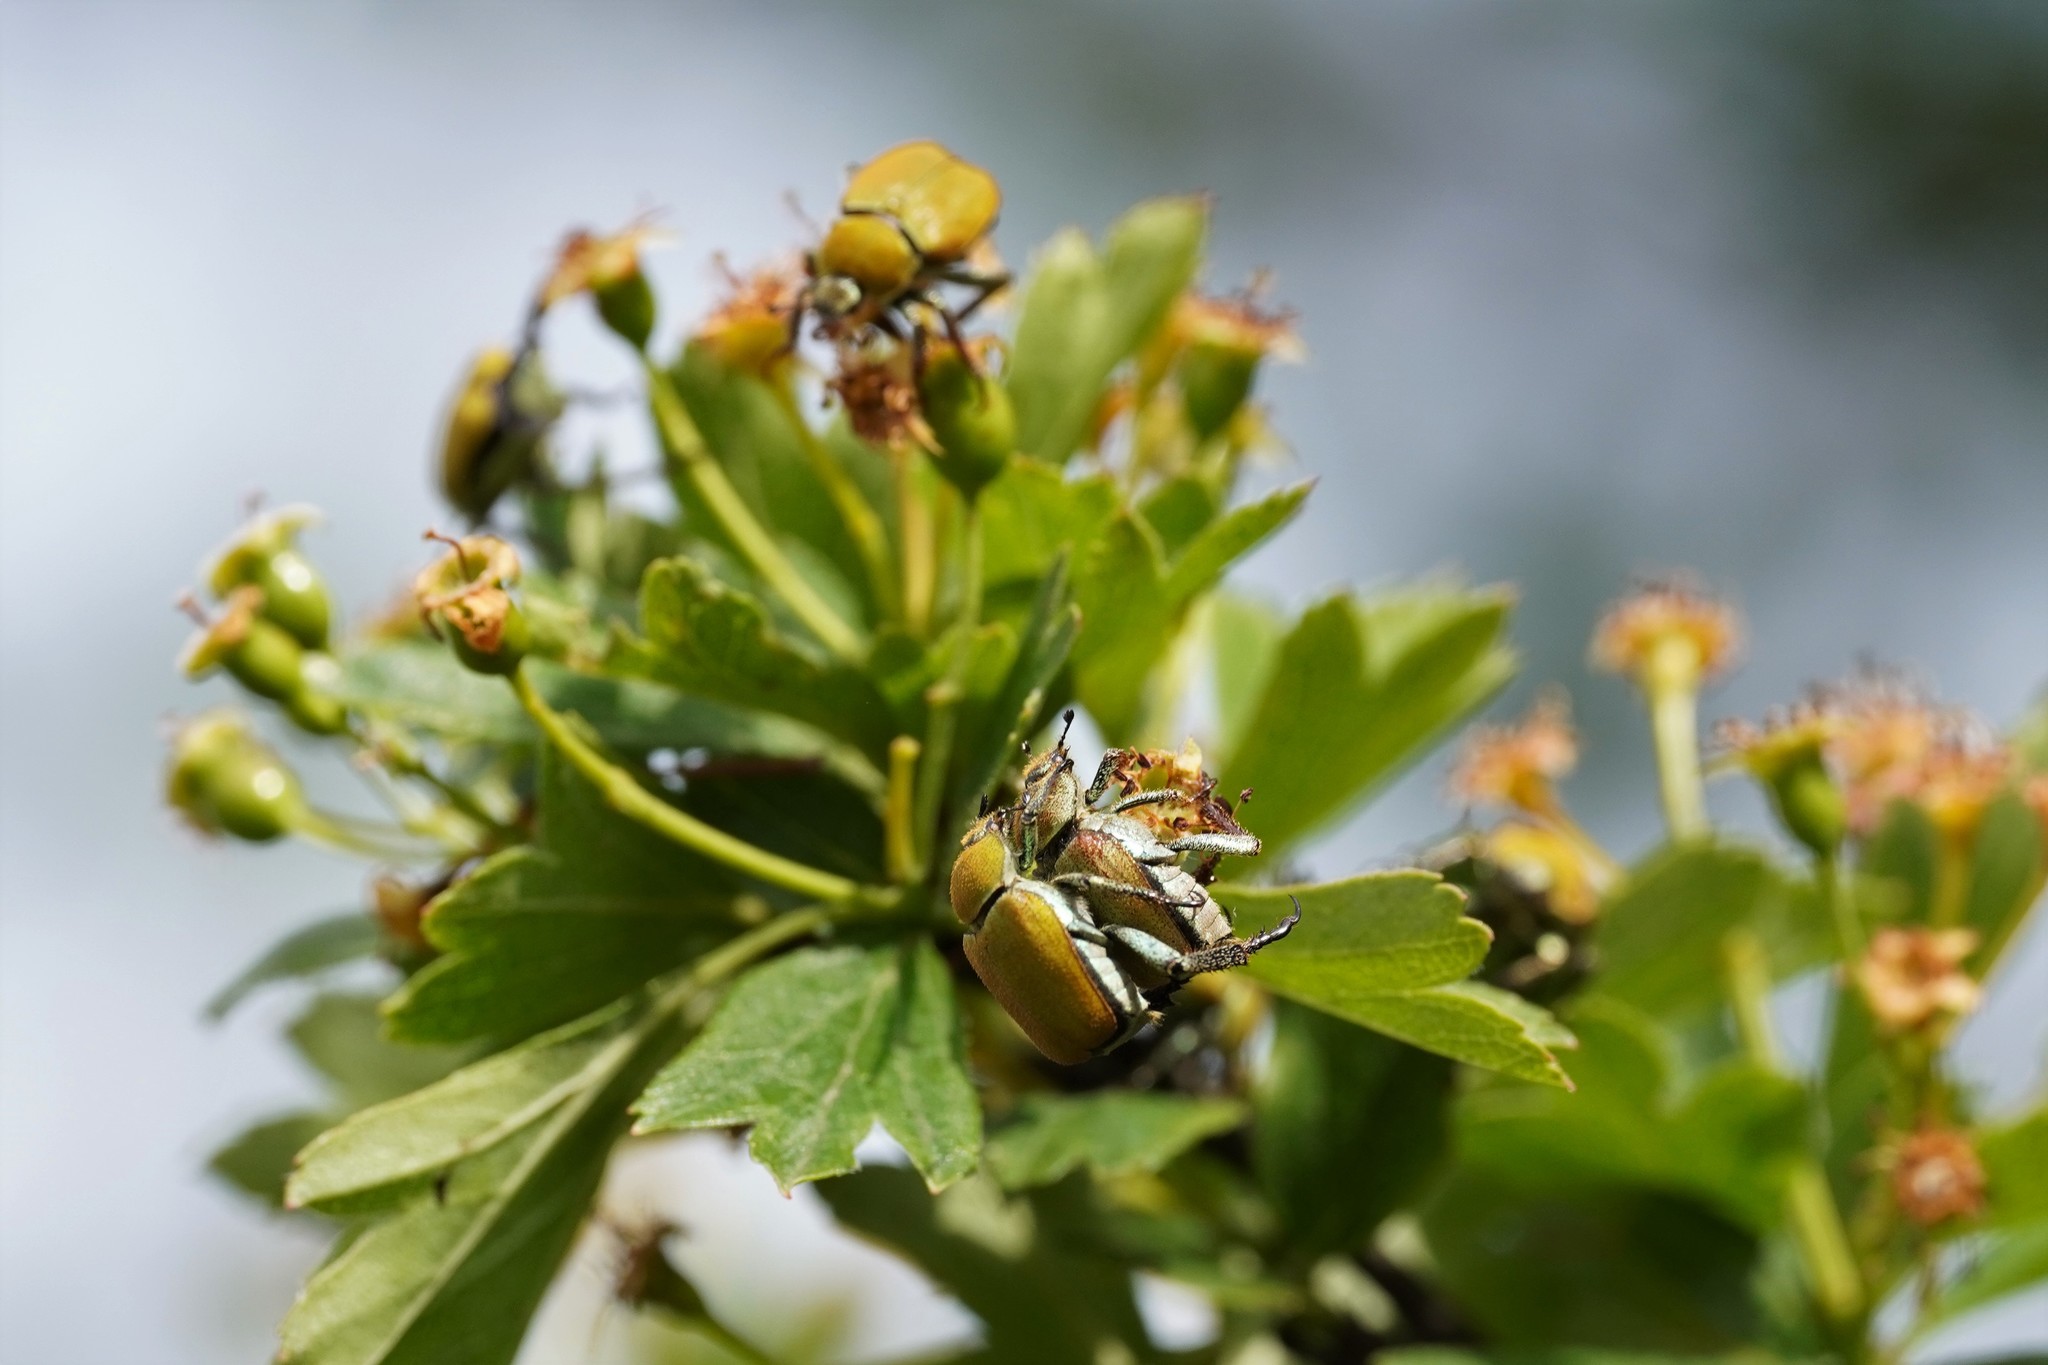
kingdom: Animalia
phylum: Arthropoda
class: Insecta
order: Coleoptera
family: Scarabaeidae
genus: Hoplia
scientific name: Hoplia argentea
